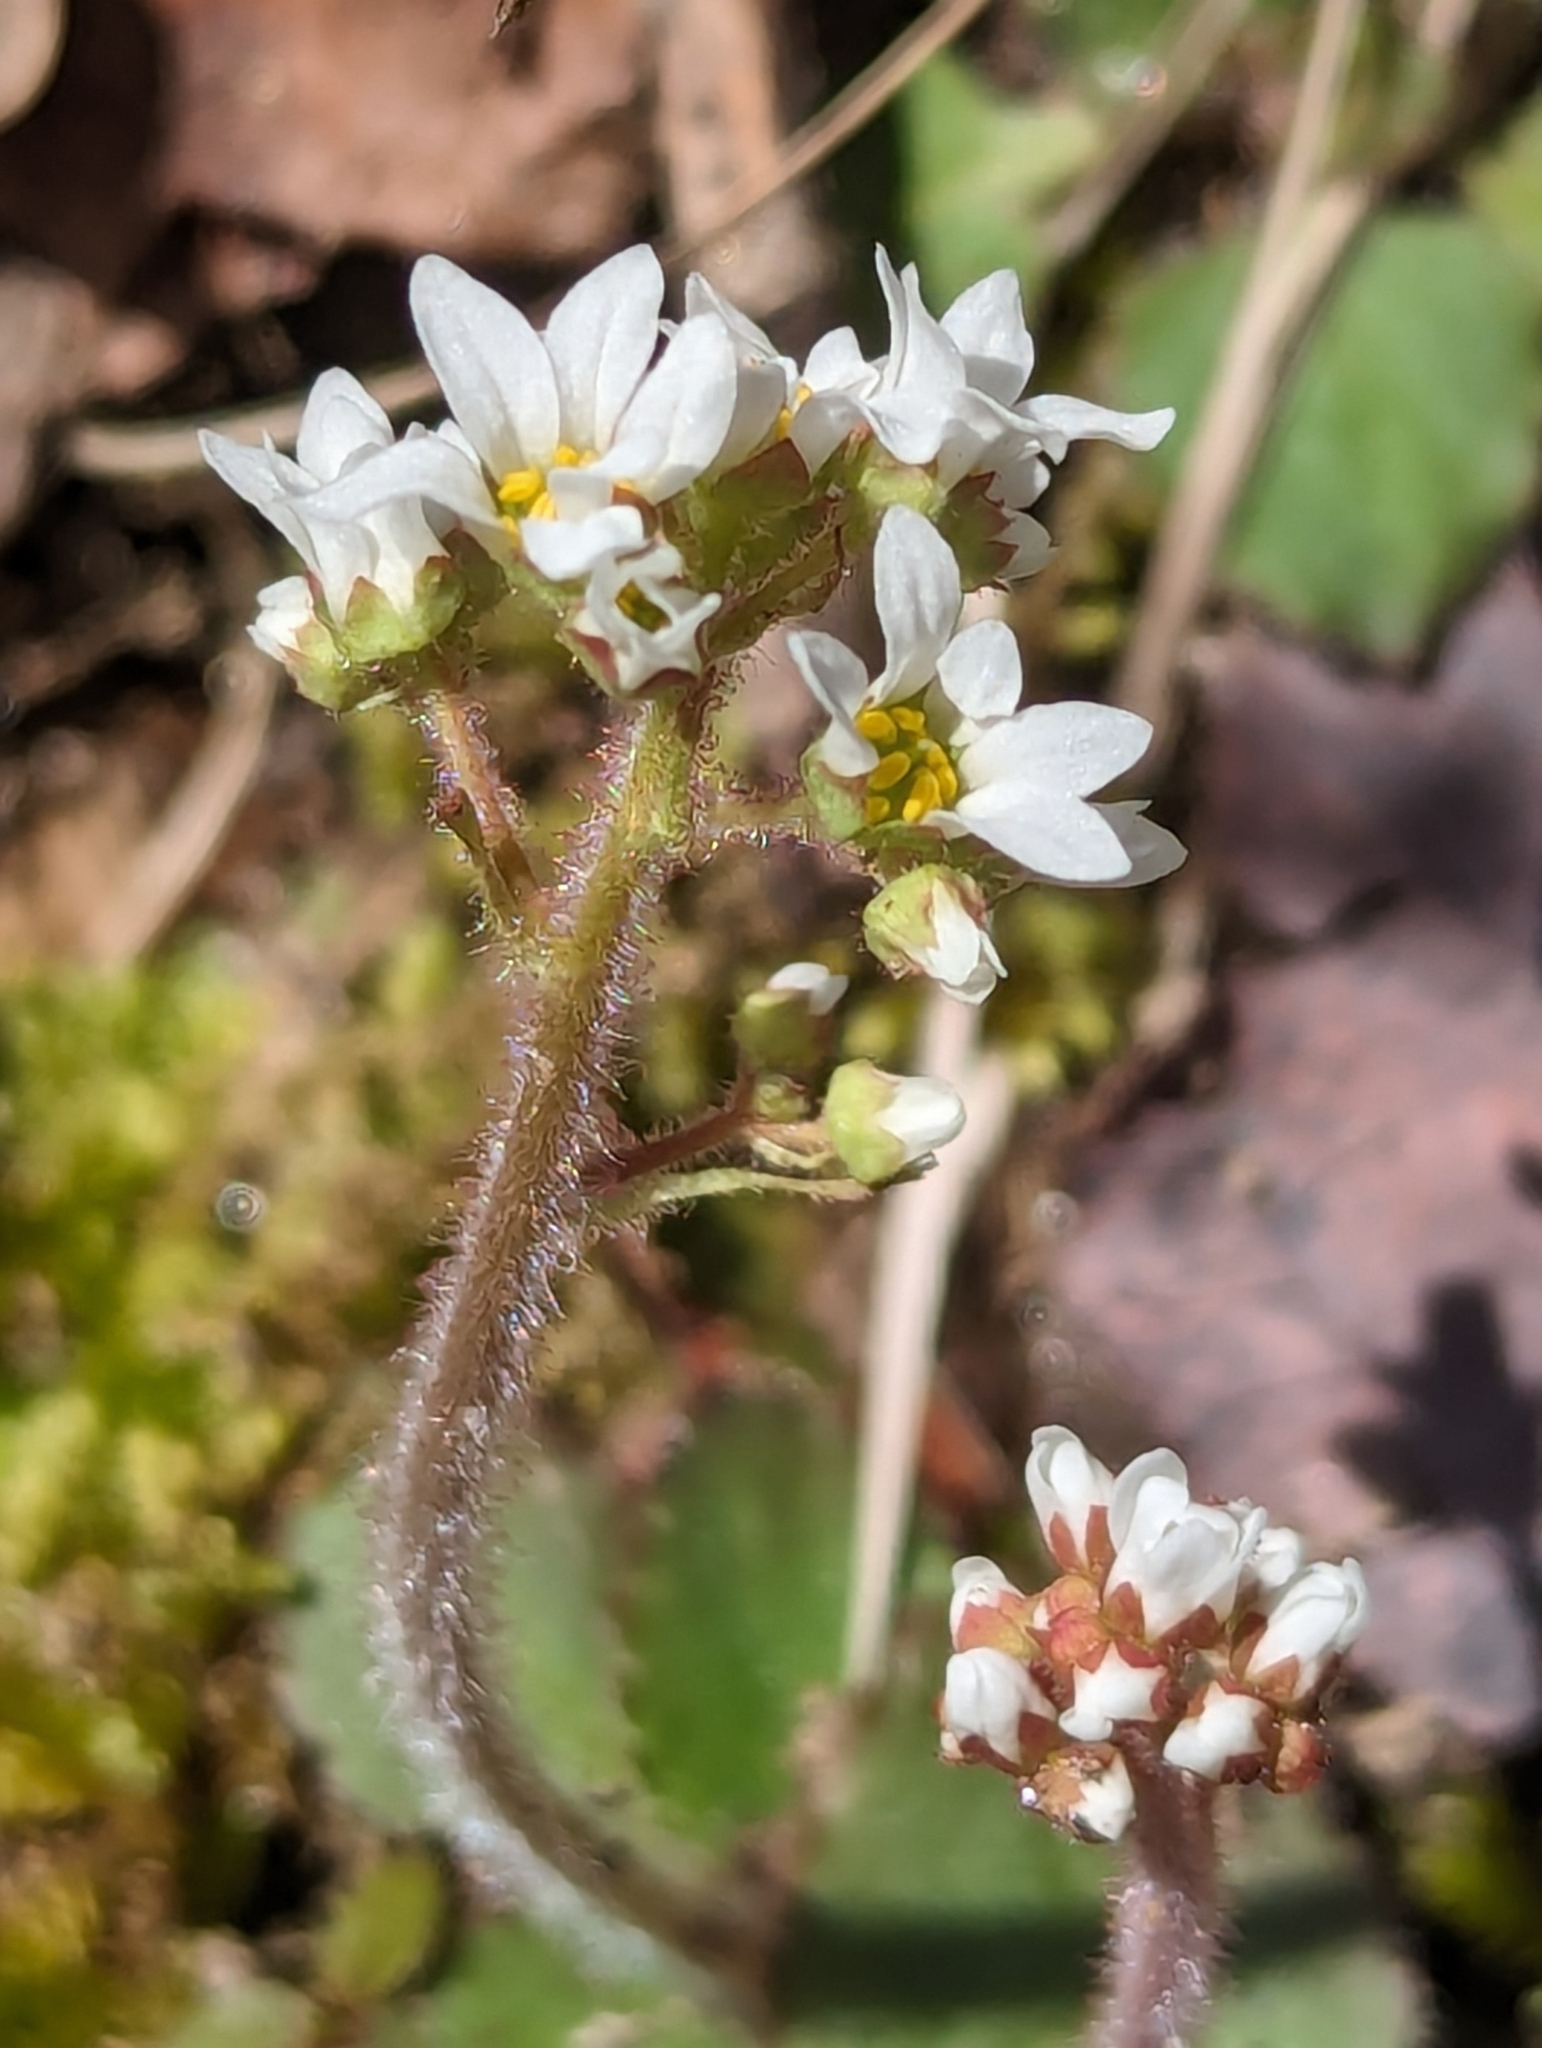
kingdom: Plantae
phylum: Tracheophyta
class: Magnoliopsida
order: Saxifragales
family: Saxifragaceae
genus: Micranthes
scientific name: Micranthes virginiensis
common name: Early saxifrage
